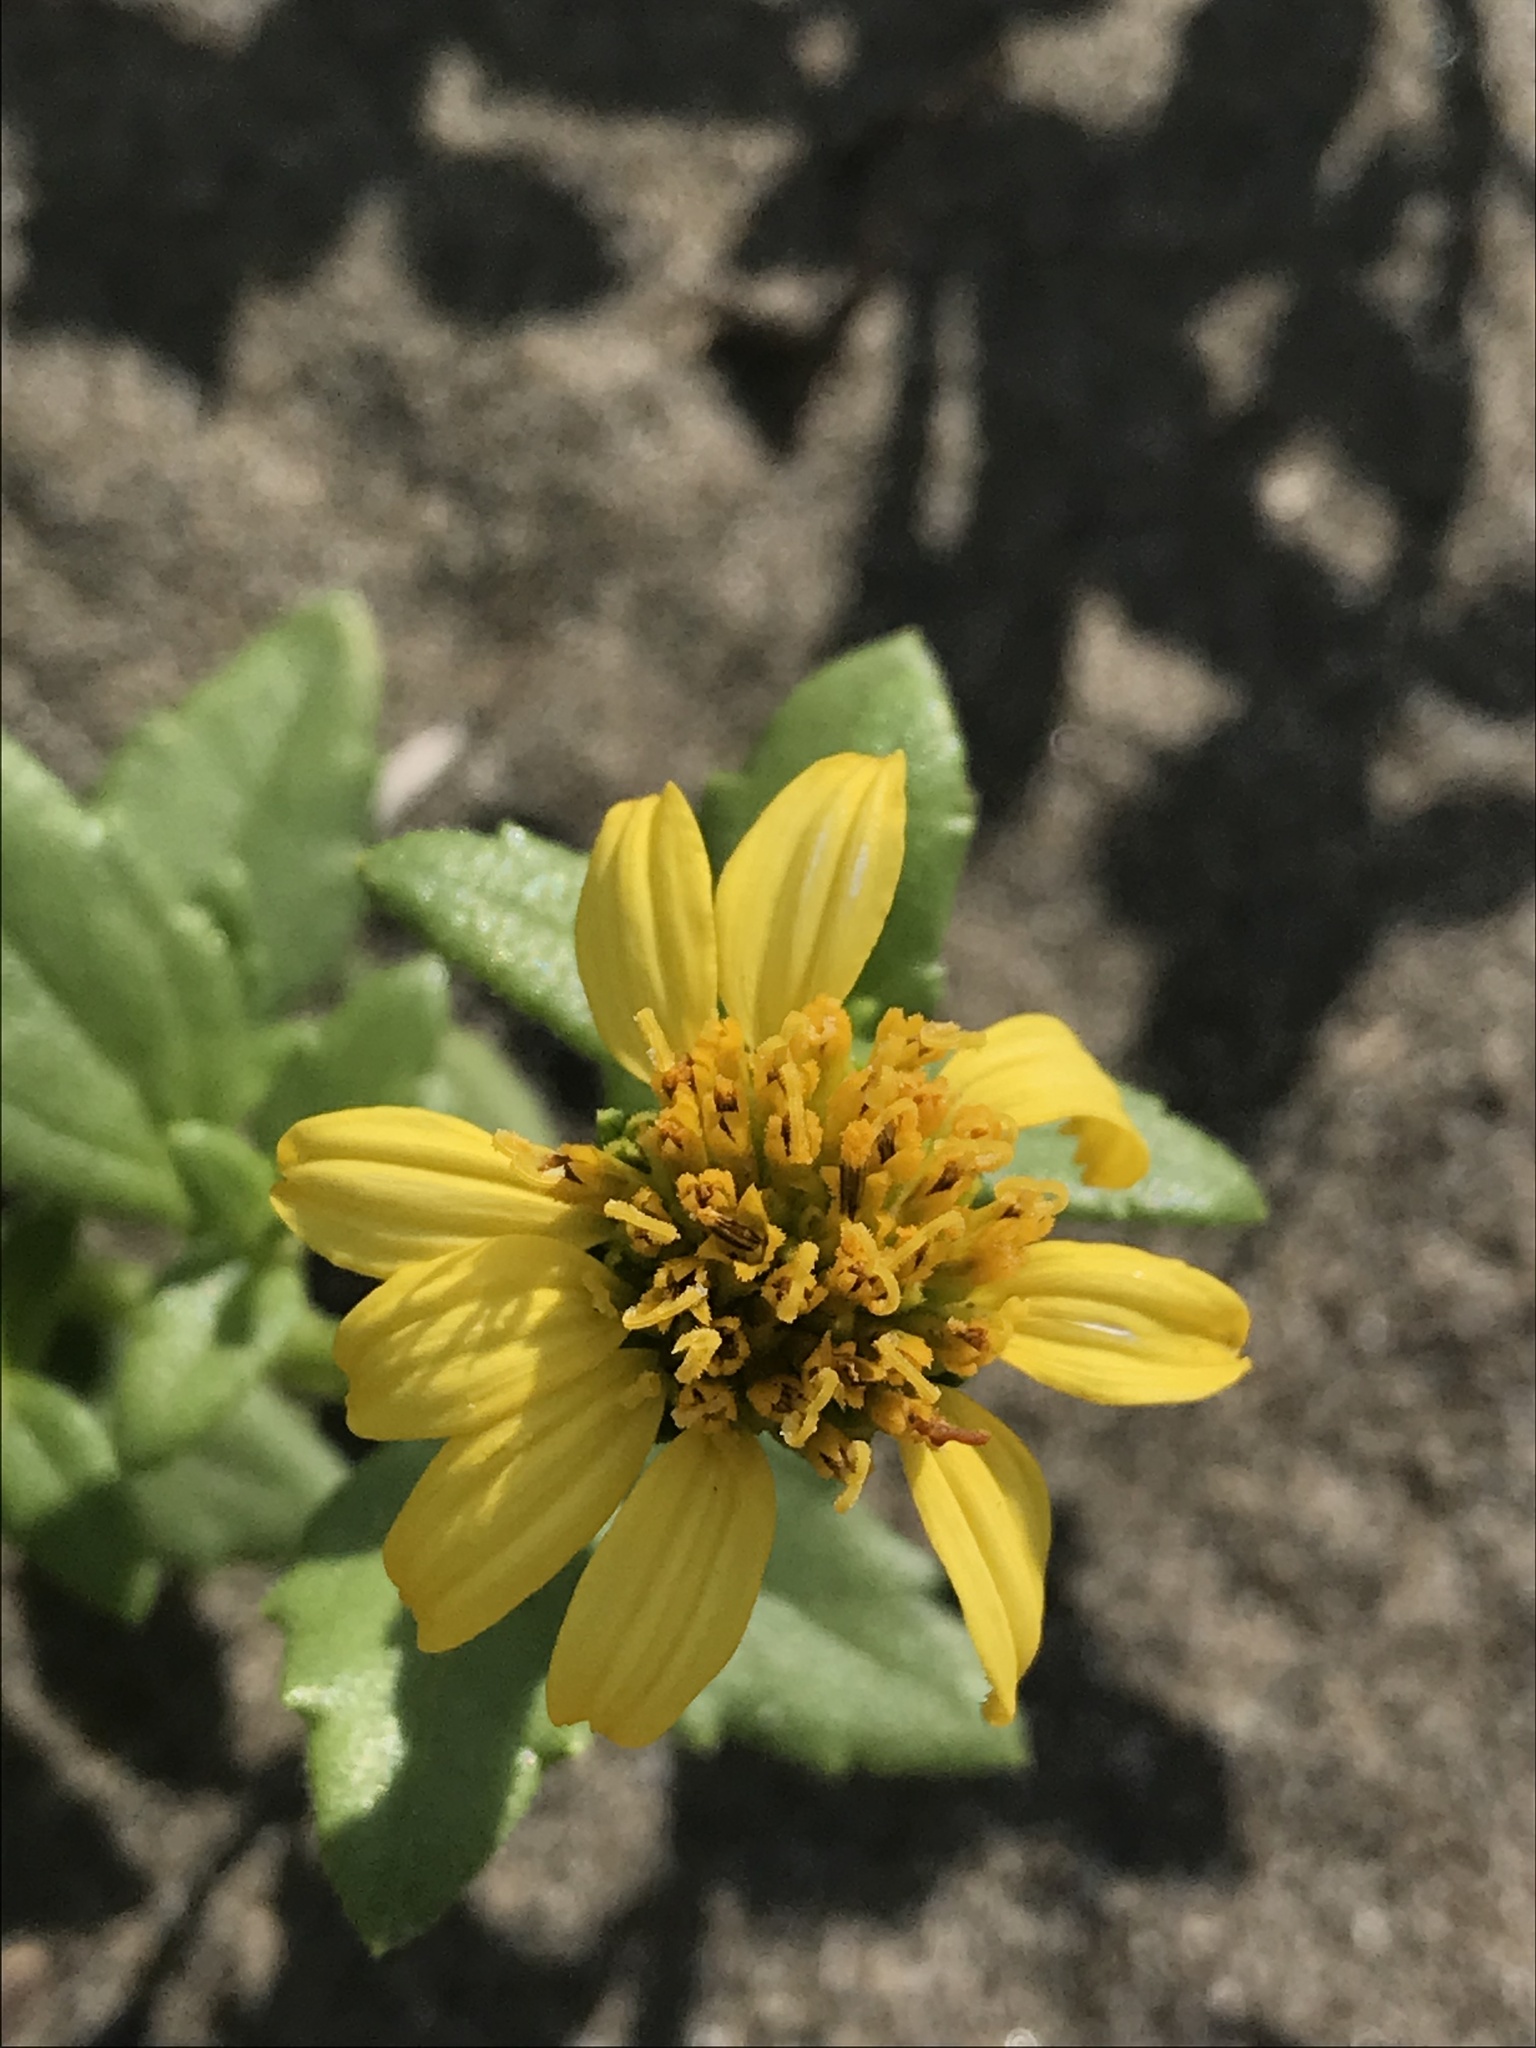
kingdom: Plantae
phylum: Tracheophyta
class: Magnoliopsida
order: Asterales
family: Asteraceae
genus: Melanthera
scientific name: Melanthera prostrata
